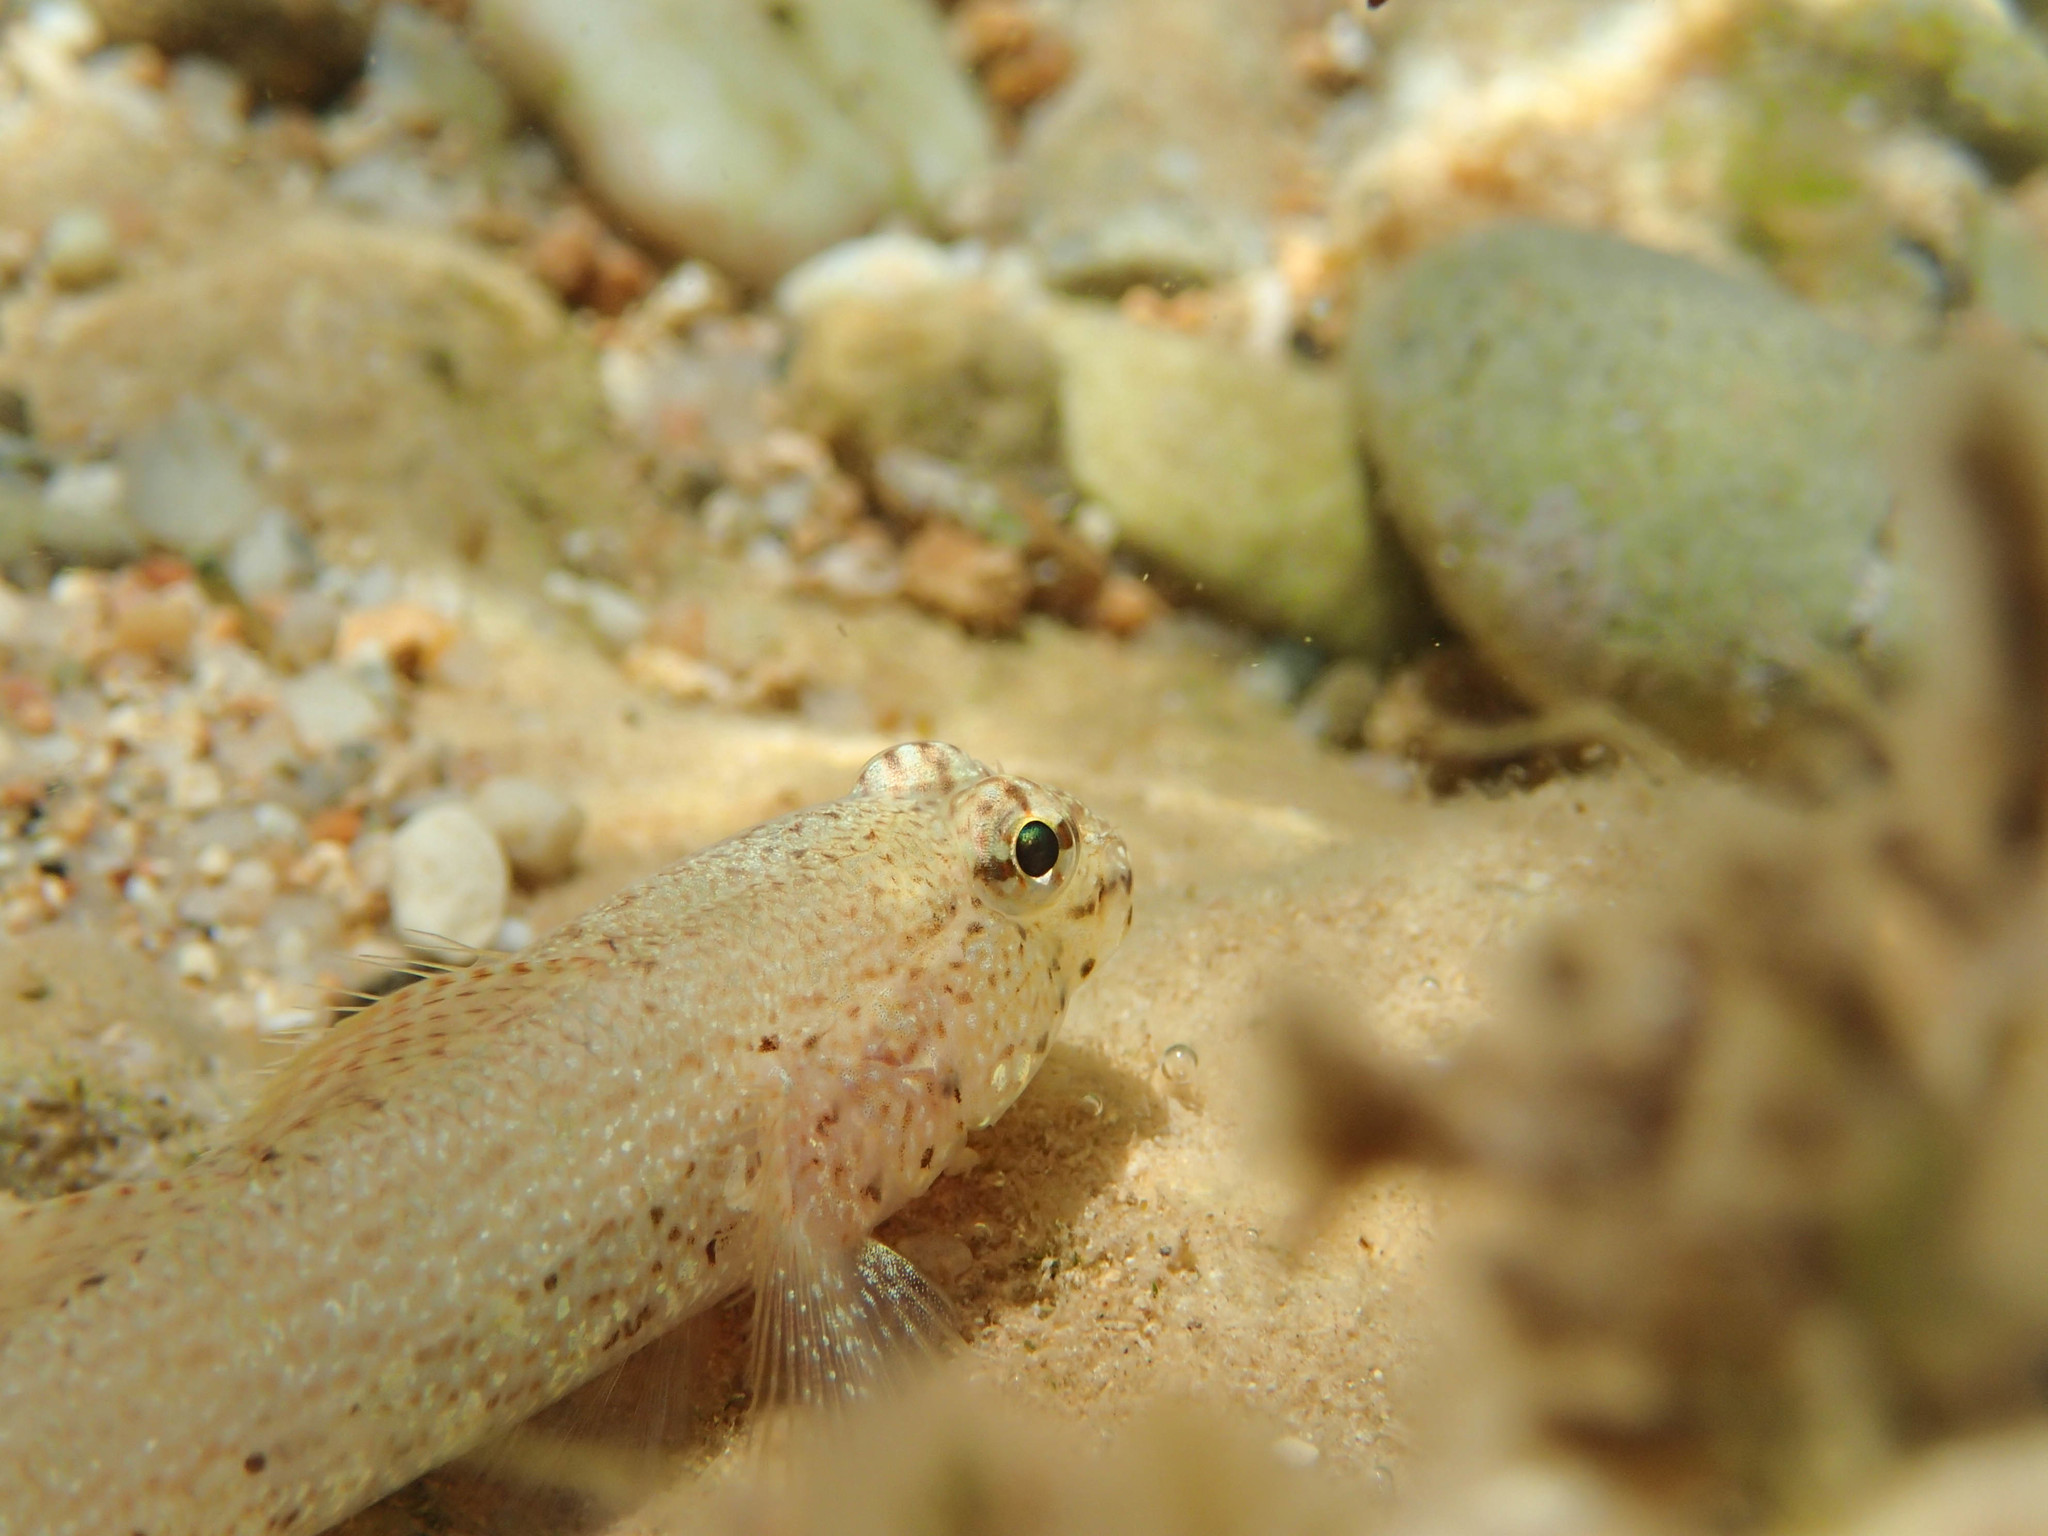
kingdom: Animalia
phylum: Chordata
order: Perciformes
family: Gobiidae
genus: Gobius
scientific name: Gobius incognitus
